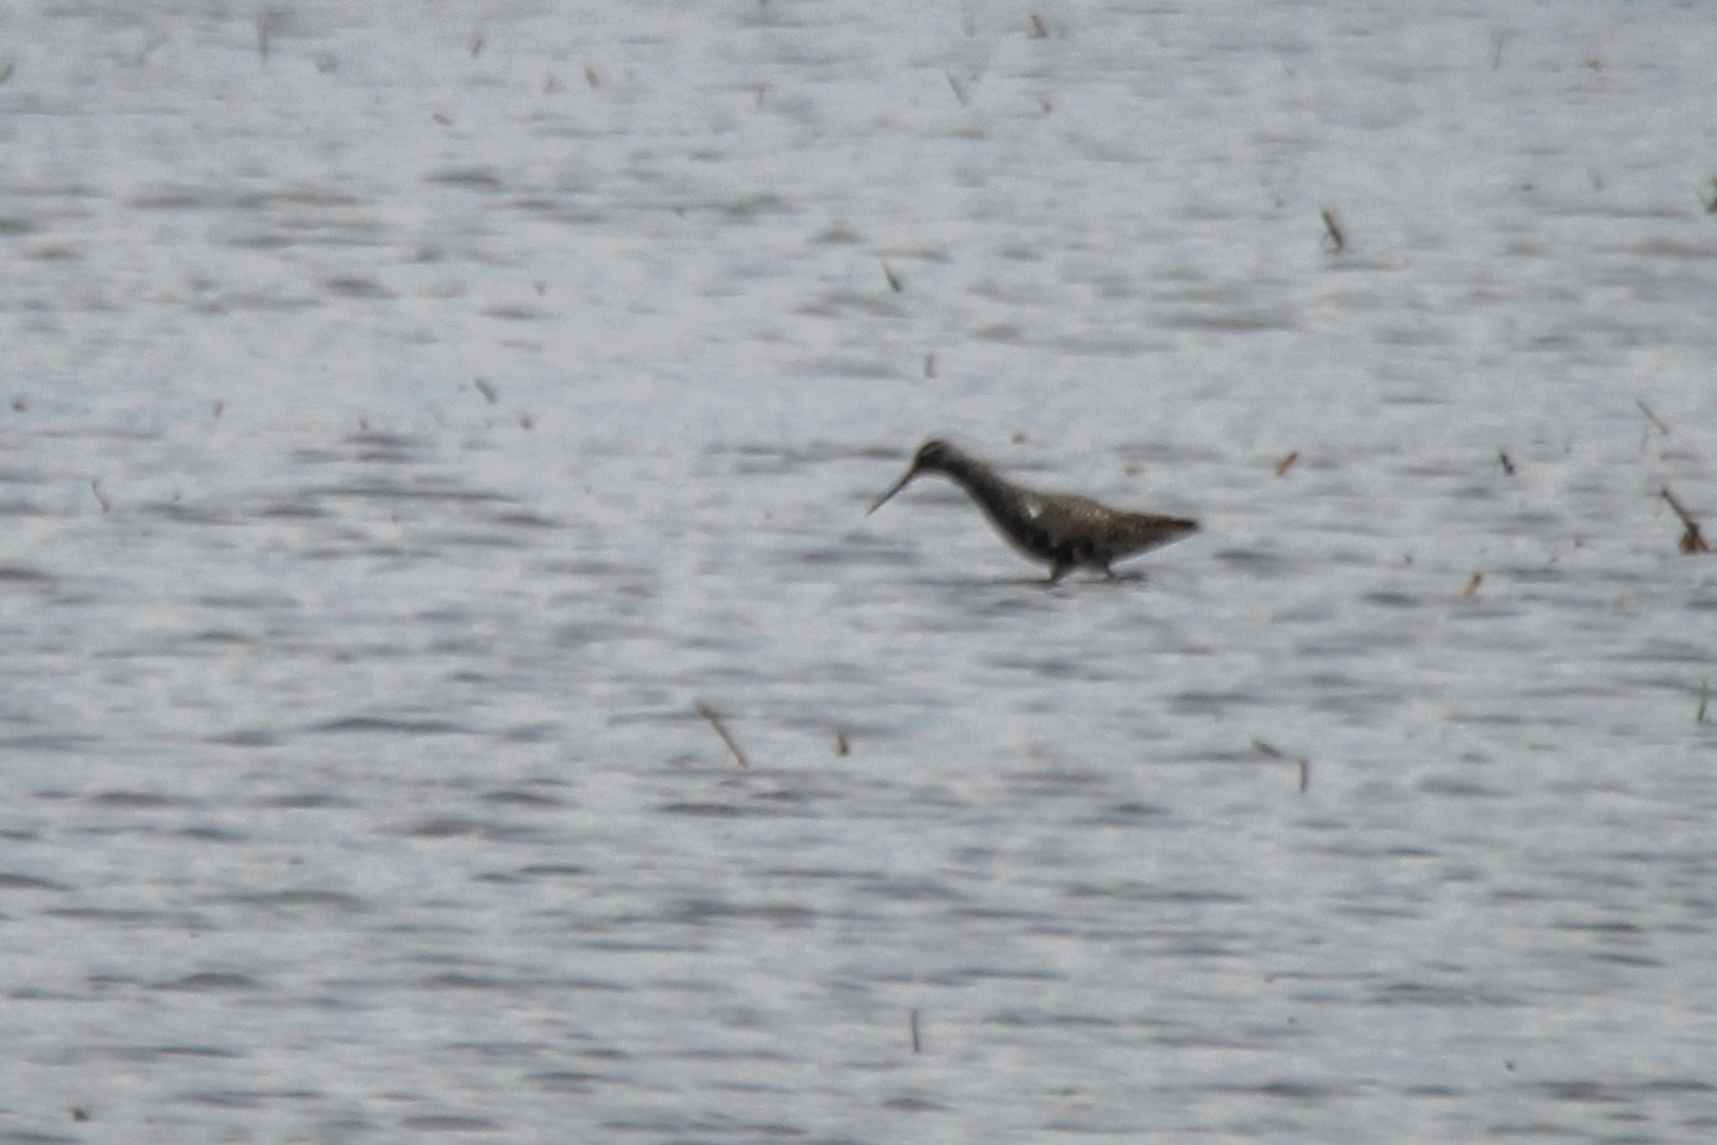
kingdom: Animalia
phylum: Chordata
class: Aves
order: Charadriiformes
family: Scolopacidae
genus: Tringa
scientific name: Tringa erythropus
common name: Spotted redshank
